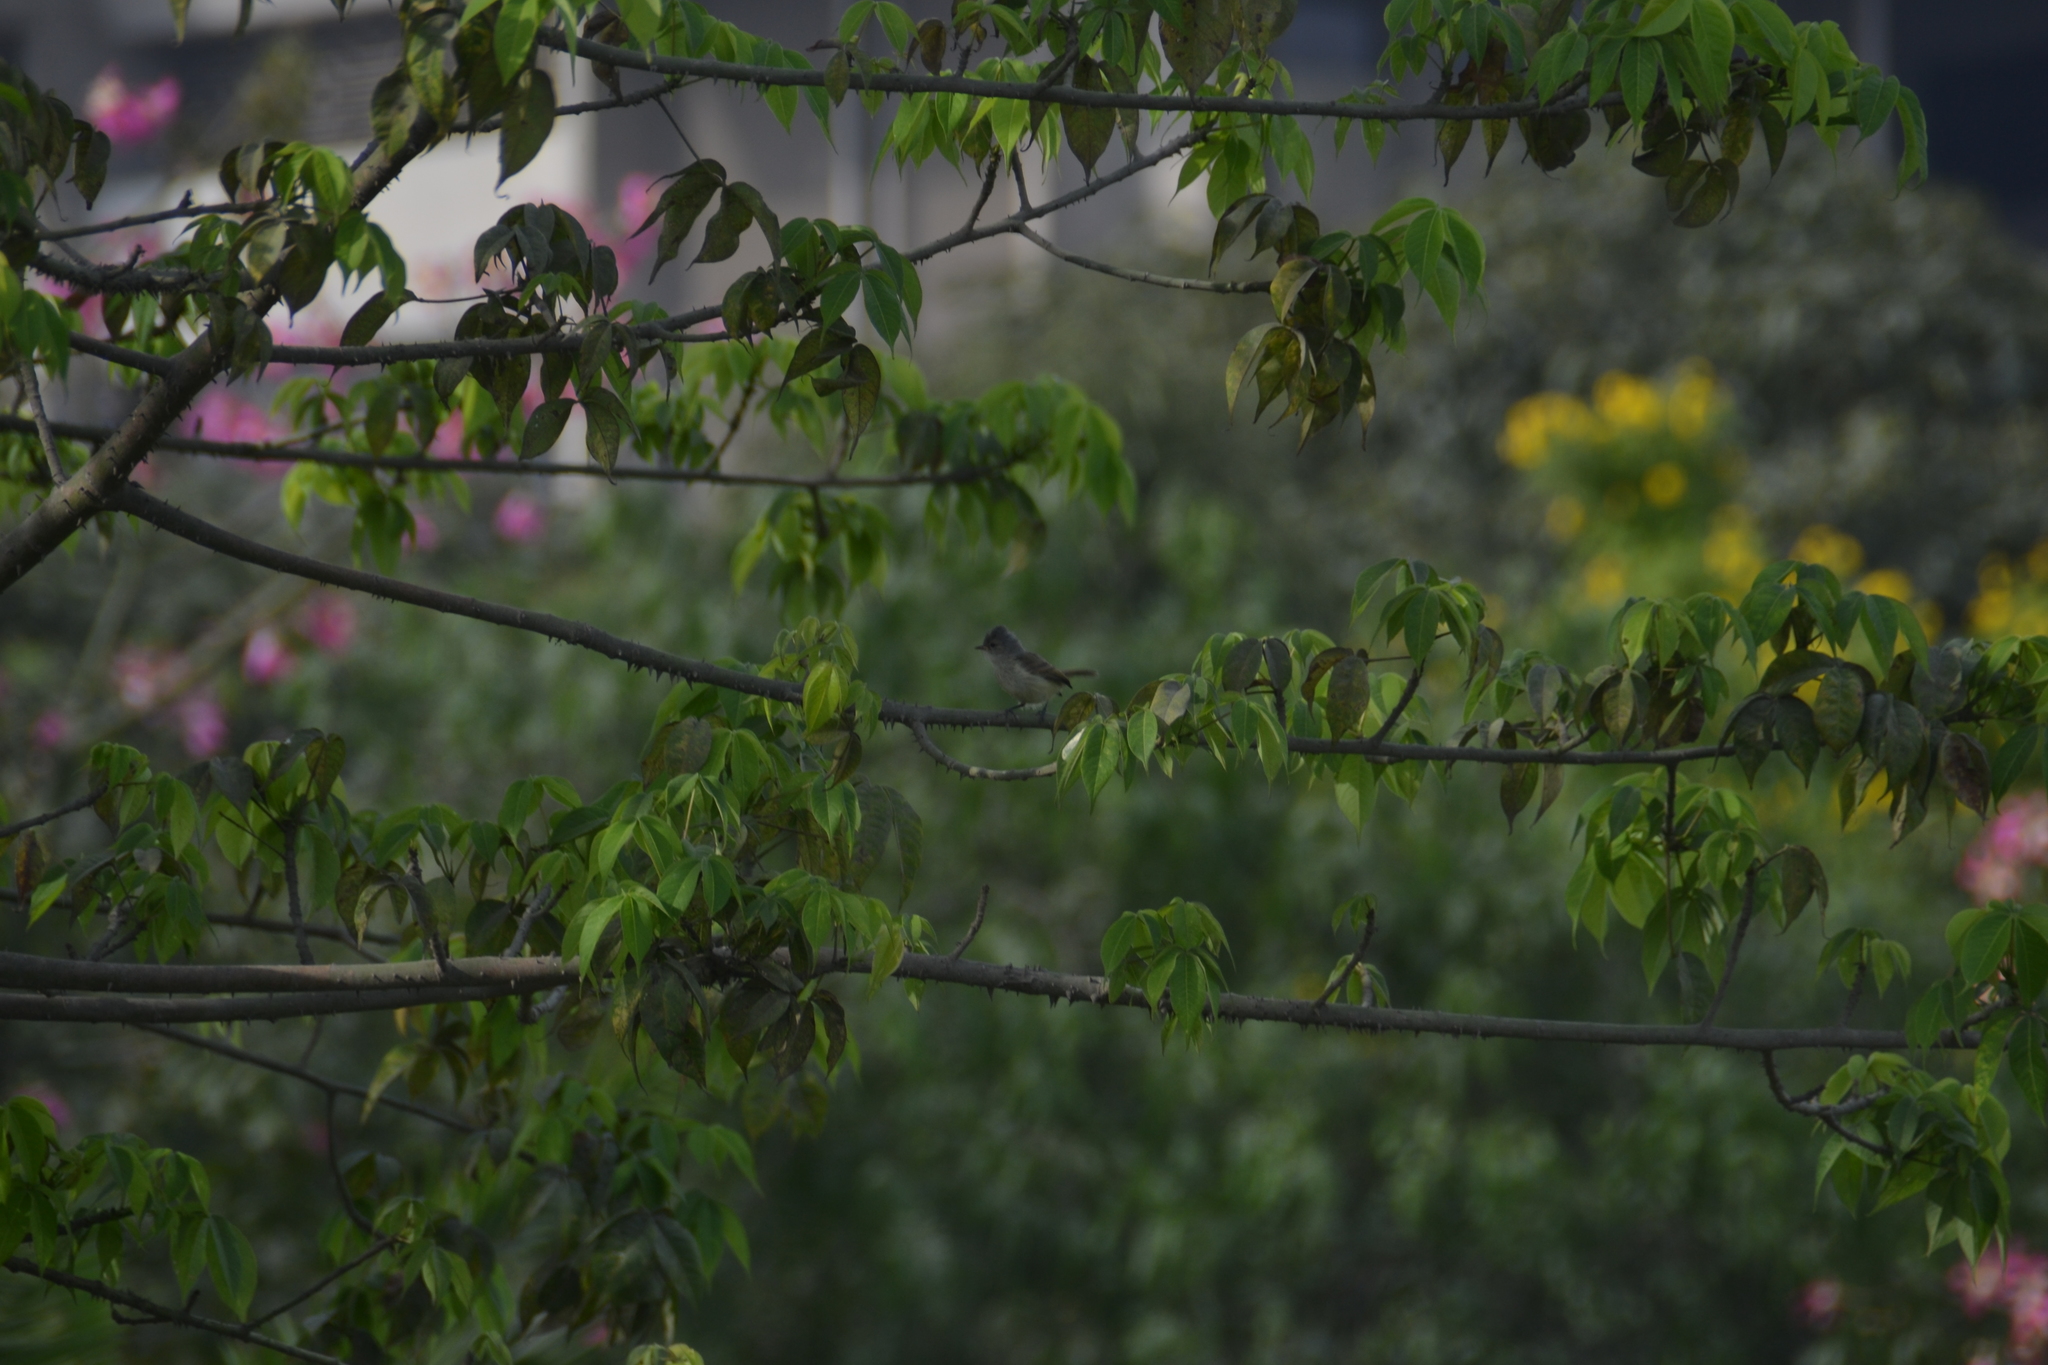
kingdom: Animalia
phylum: Chordata
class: Aves
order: Passeriformes
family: Tyrannidae
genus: Camptostoma
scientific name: Camptostoma obsoletum
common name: Southern beardless-tyrannulet
